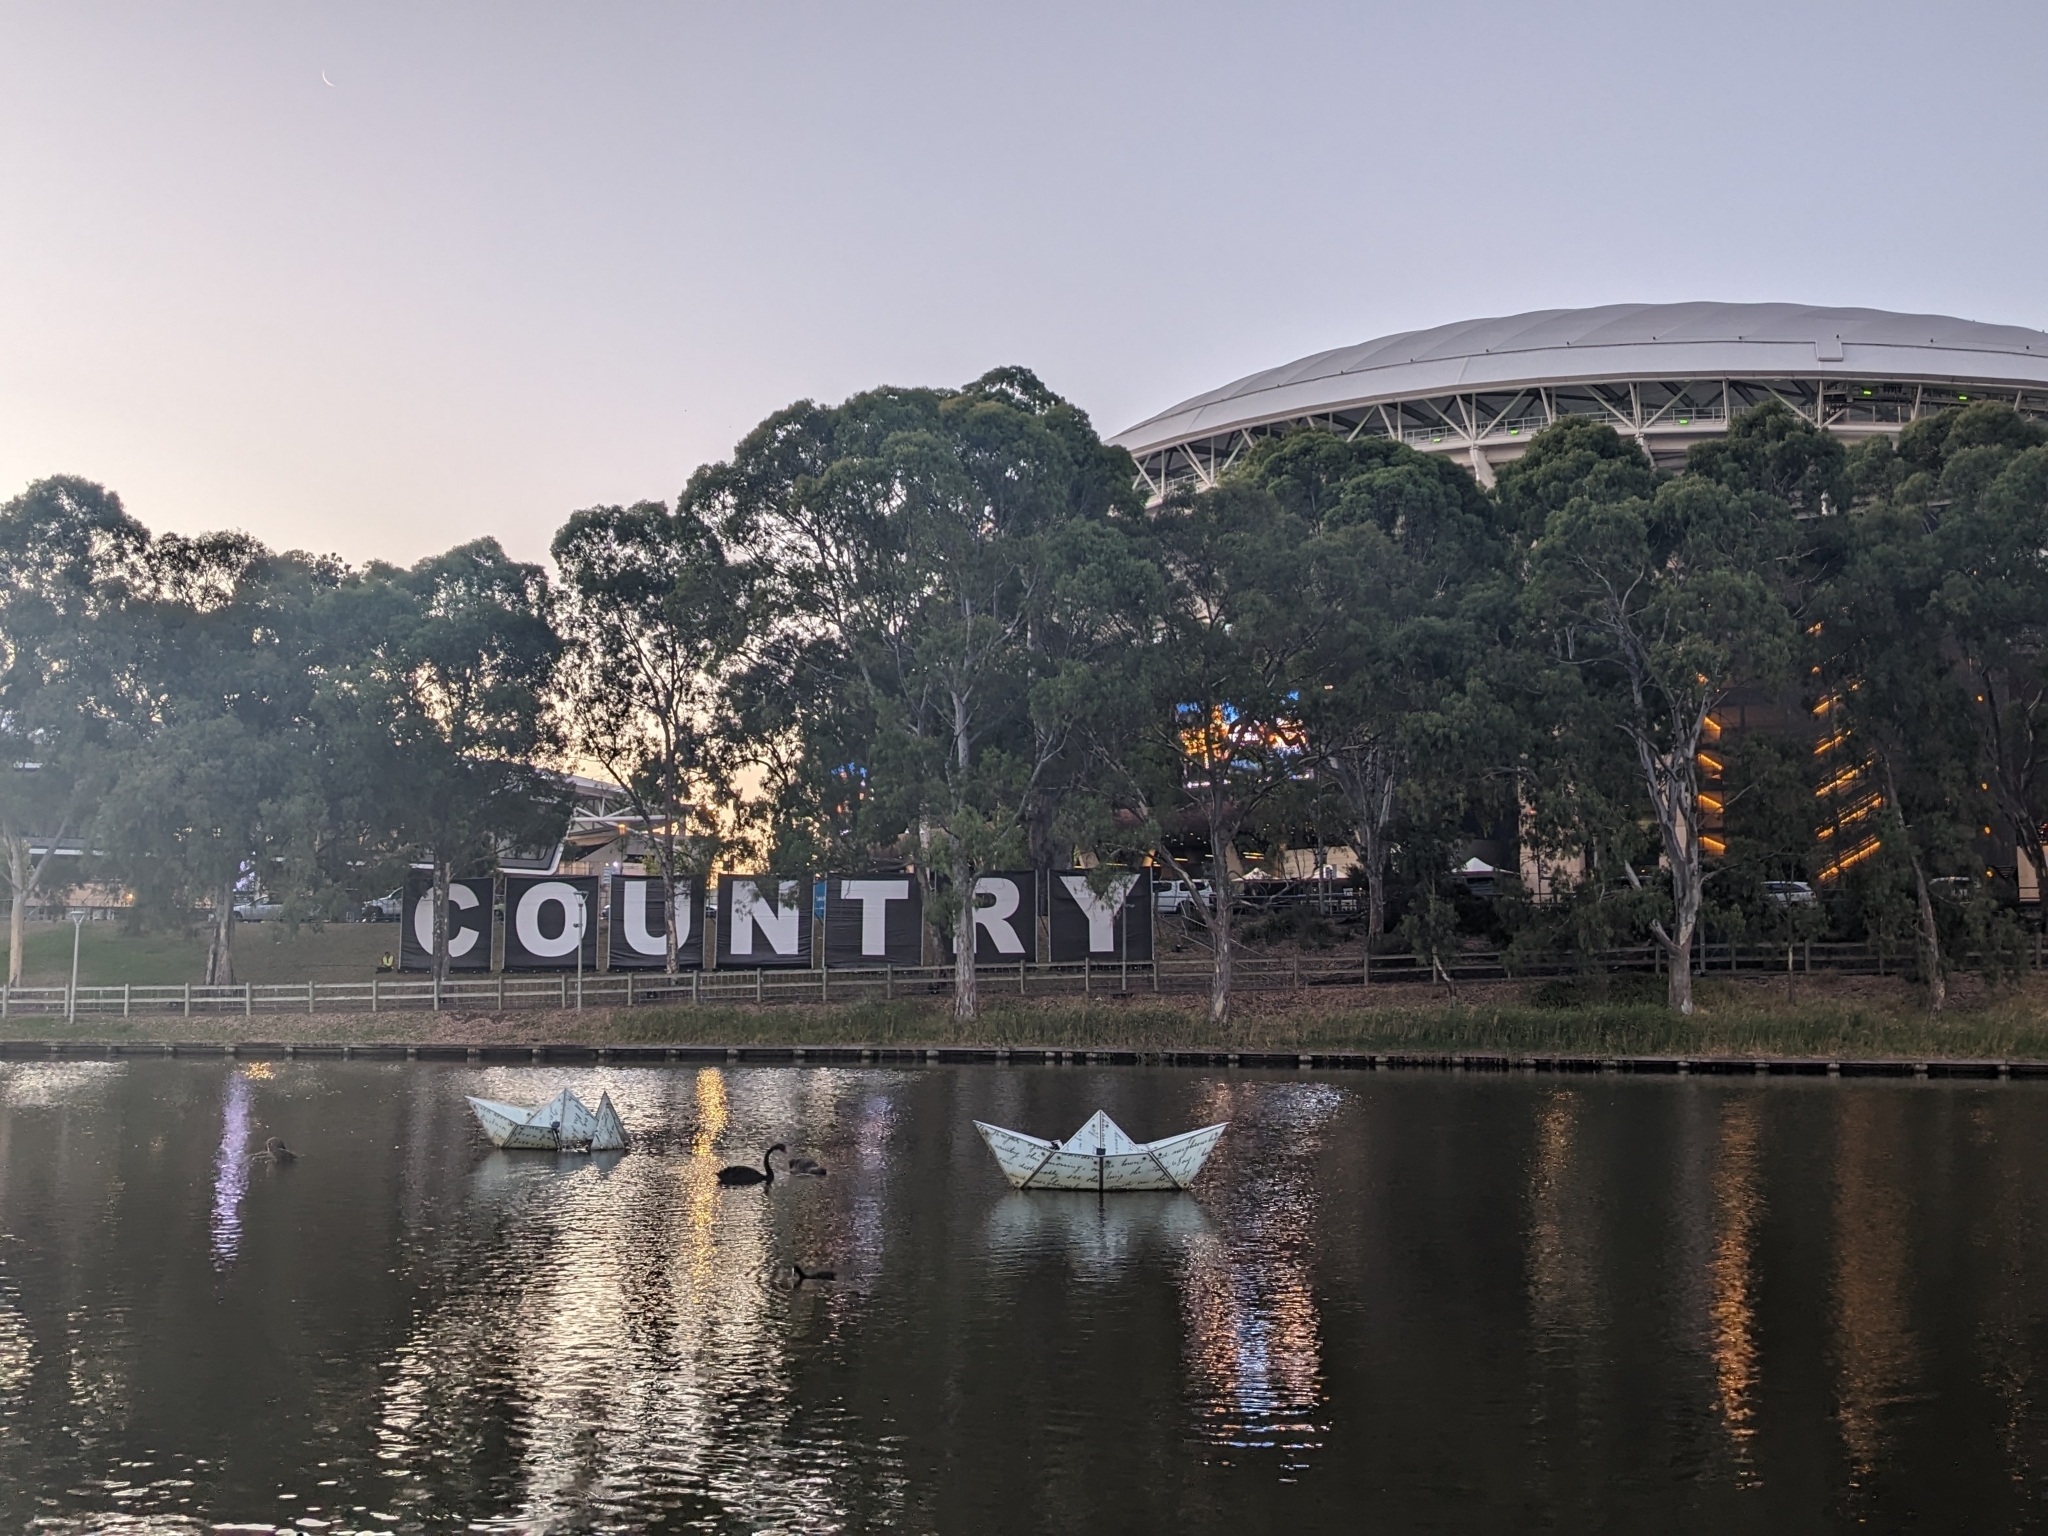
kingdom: Animalia
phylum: Chordata
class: Aves
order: Anseriformes
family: Anatidae
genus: Cygnus
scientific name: Cygnus atratus
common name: Black swan
